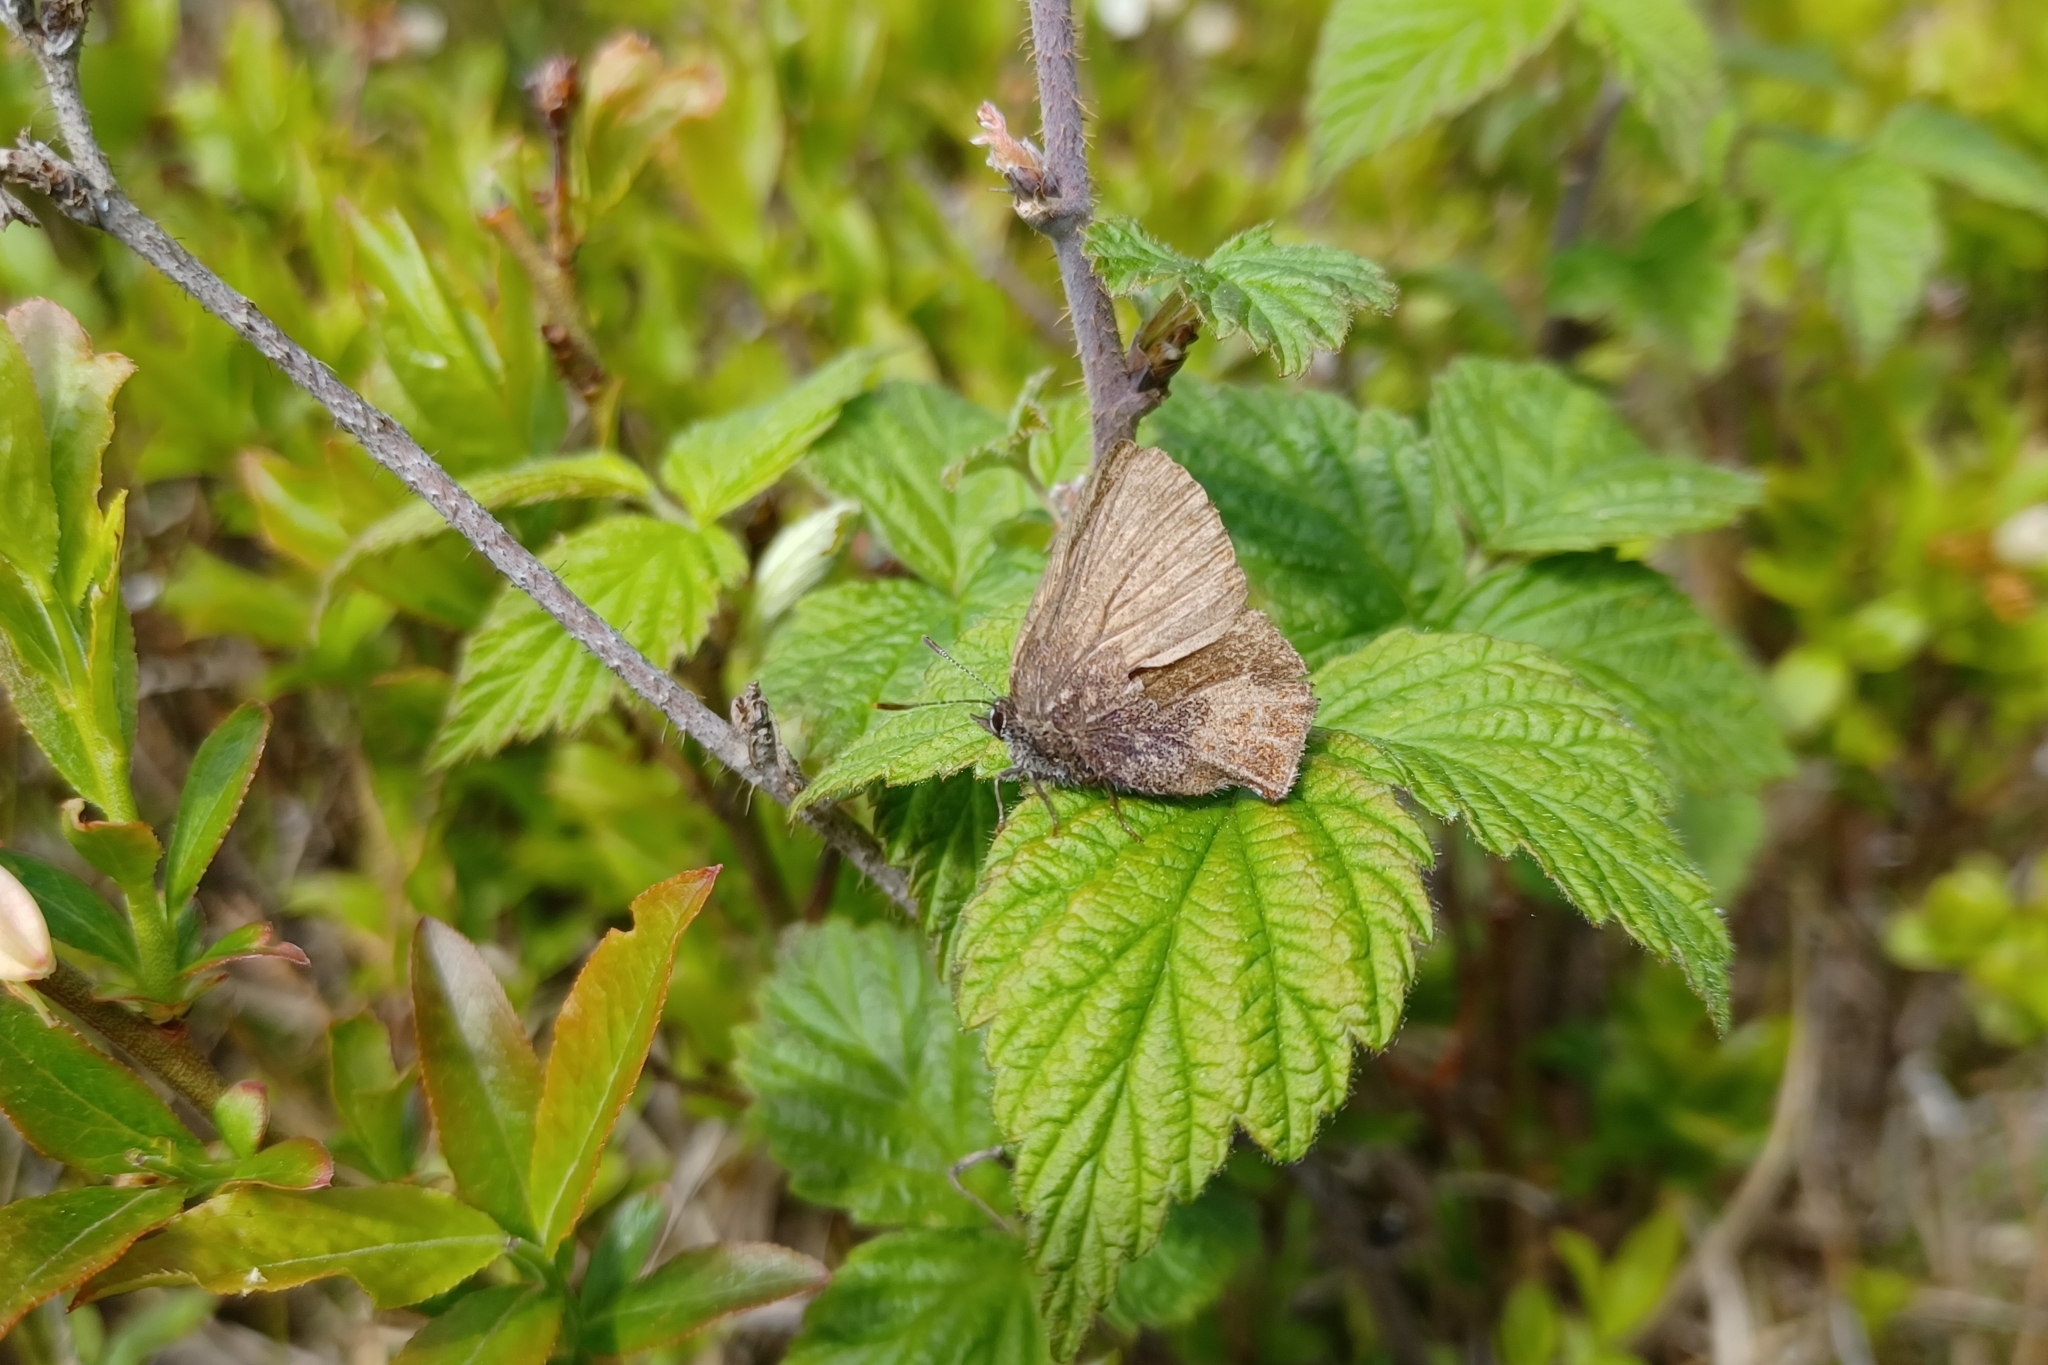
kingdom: Animalia
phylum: Arthropoda
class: Insecta
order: Lepidoptera
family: Lycaenidae
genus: Incisalia
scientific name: Incisalia irioides
